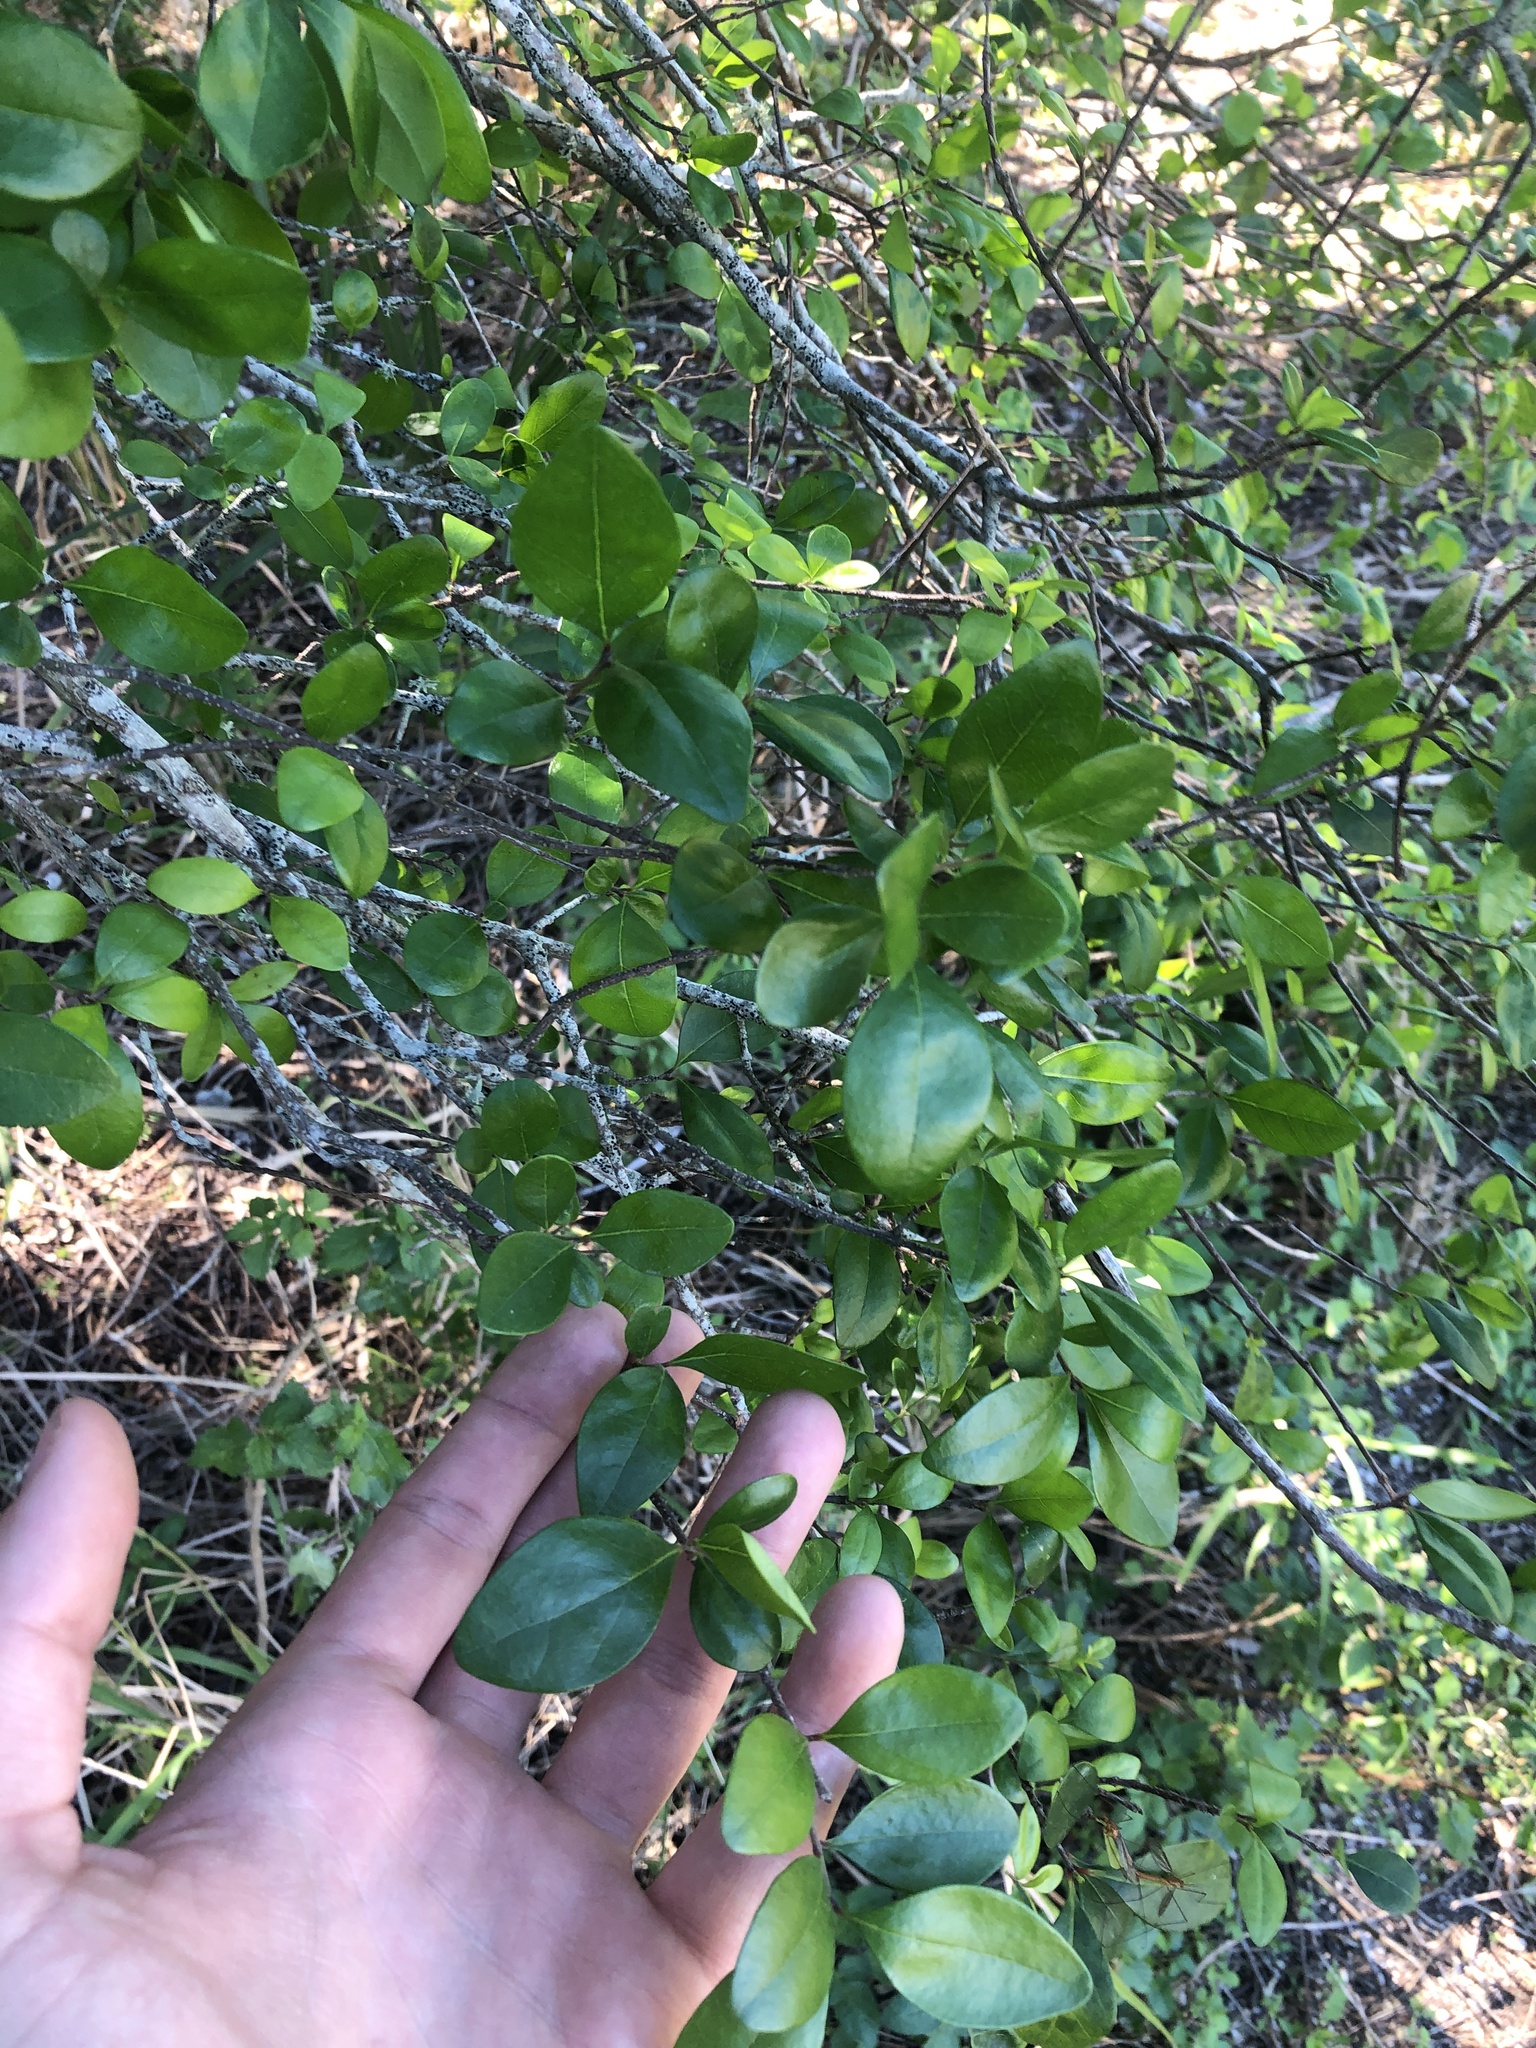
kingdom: Plantae
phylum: Tracheophyta
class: Magnoliopsida
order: Myrtales
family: Myrtaceae
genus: Myrcianthes
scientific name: Myrcianthes fragrans
